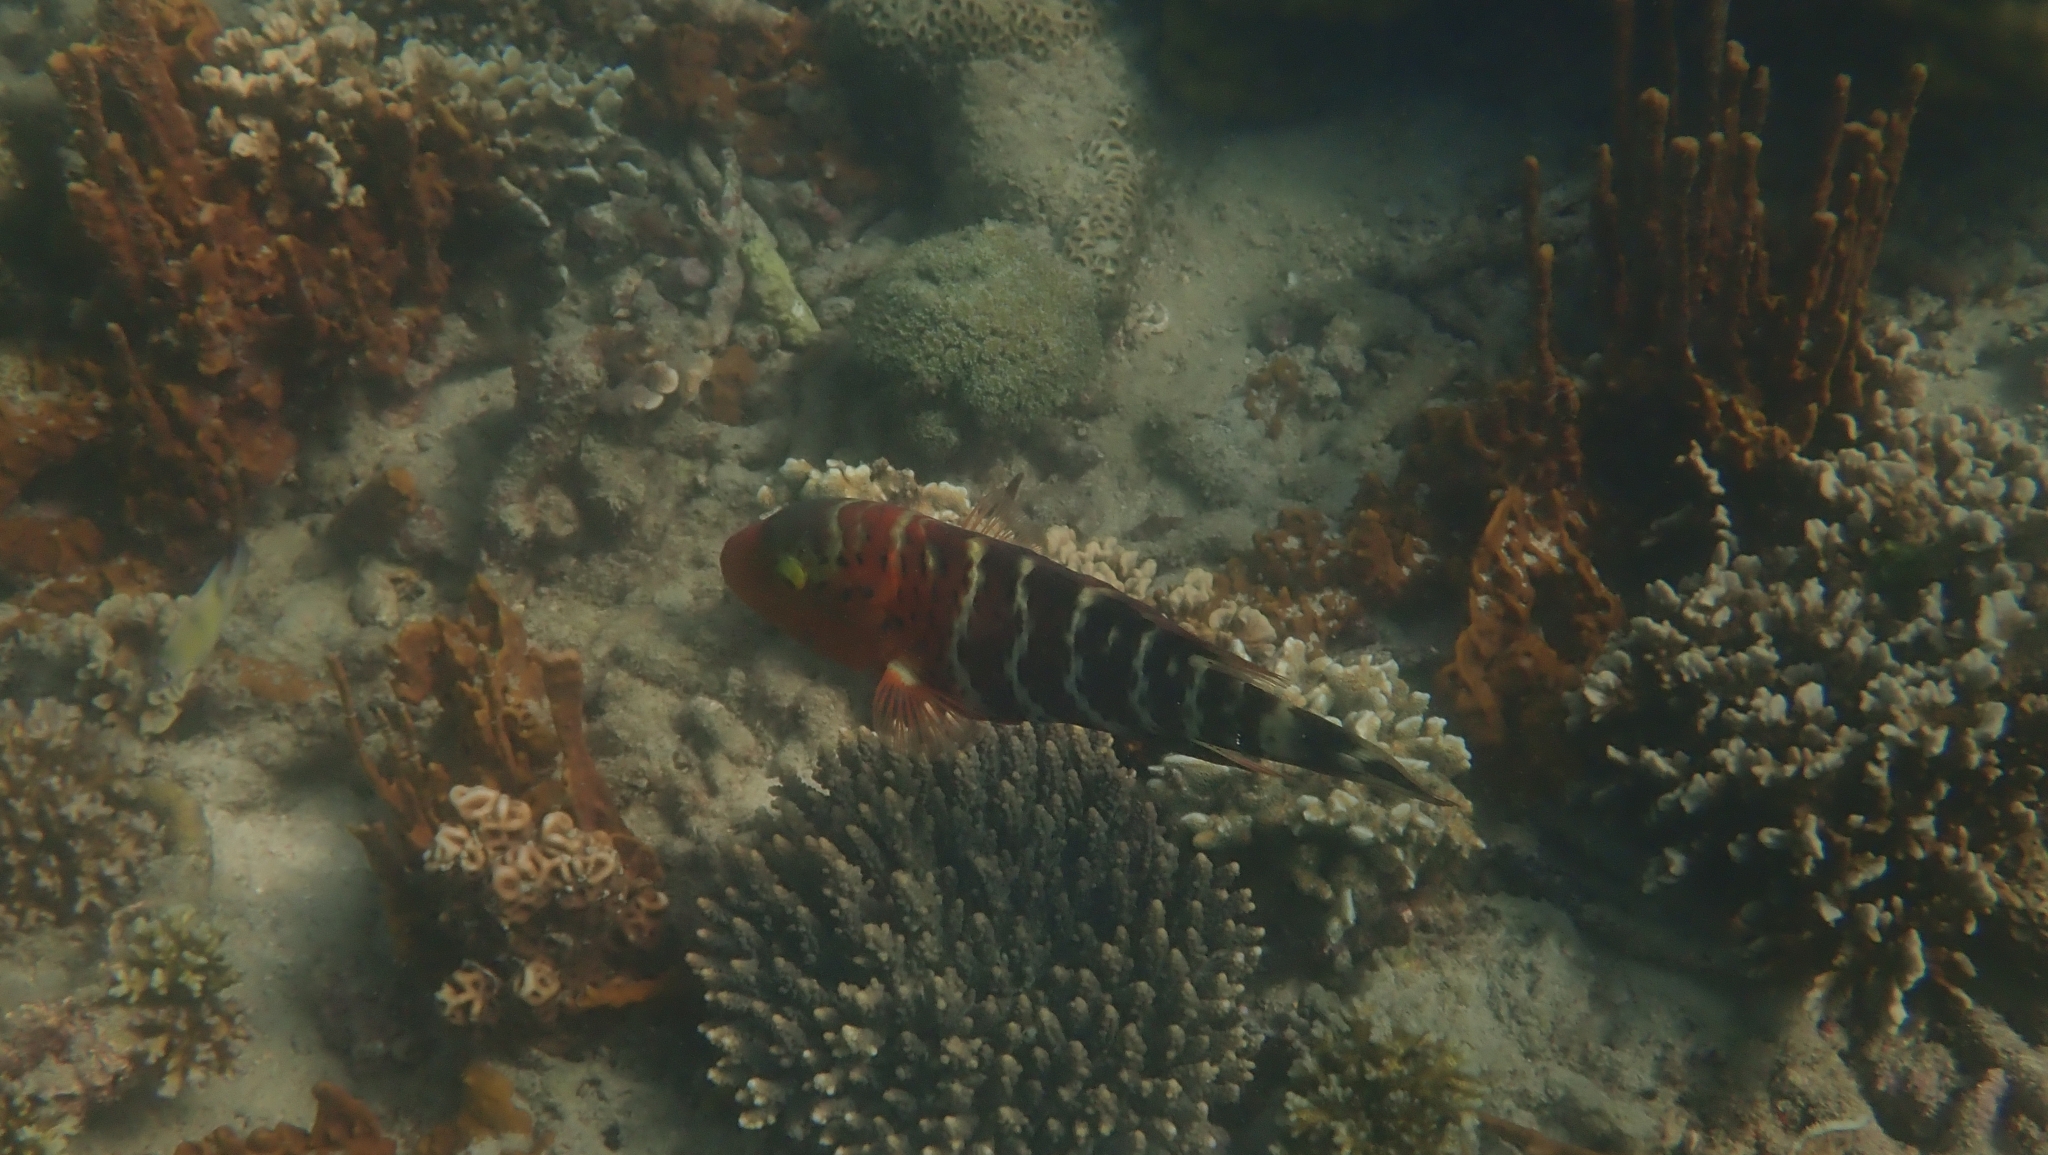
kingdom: Animalia
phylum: Chordata
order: Perciformes
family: Labridae
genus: Cheilinus
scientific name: Cheilinus fasciatus
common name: Red-breasted wrasse
